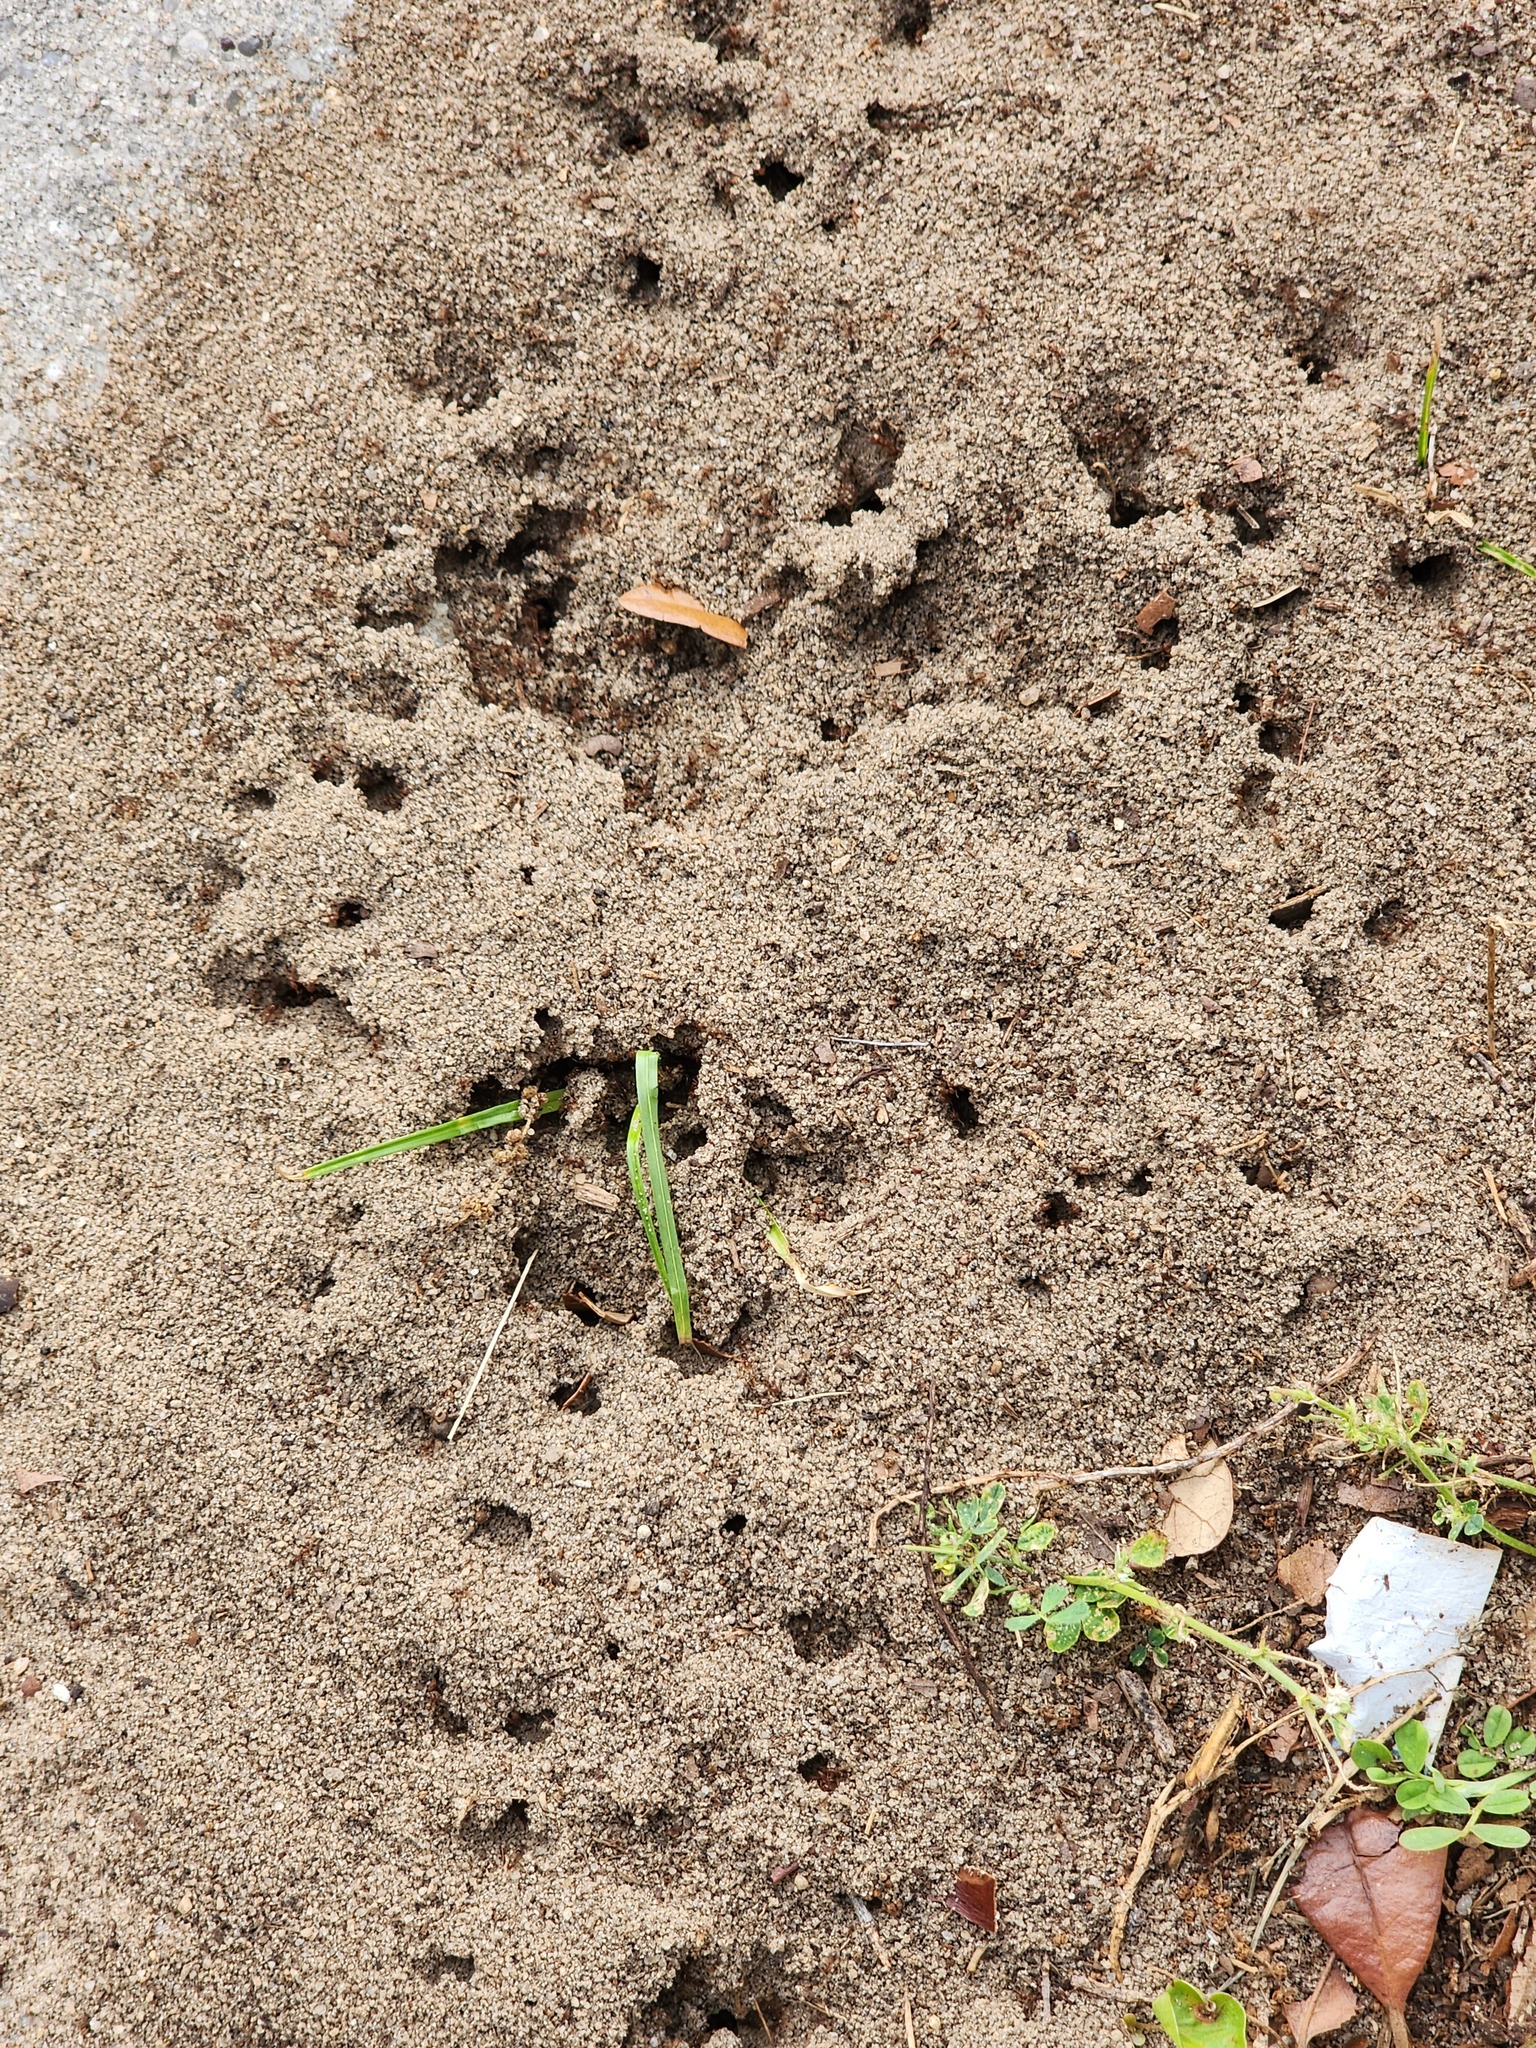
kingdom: Animalia
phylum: Arthropoda
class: Insecta
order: Hymenoptera
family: Formicidae
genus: Solenopsis
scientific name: Solenopsis invicta
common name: Red imported fire ant
